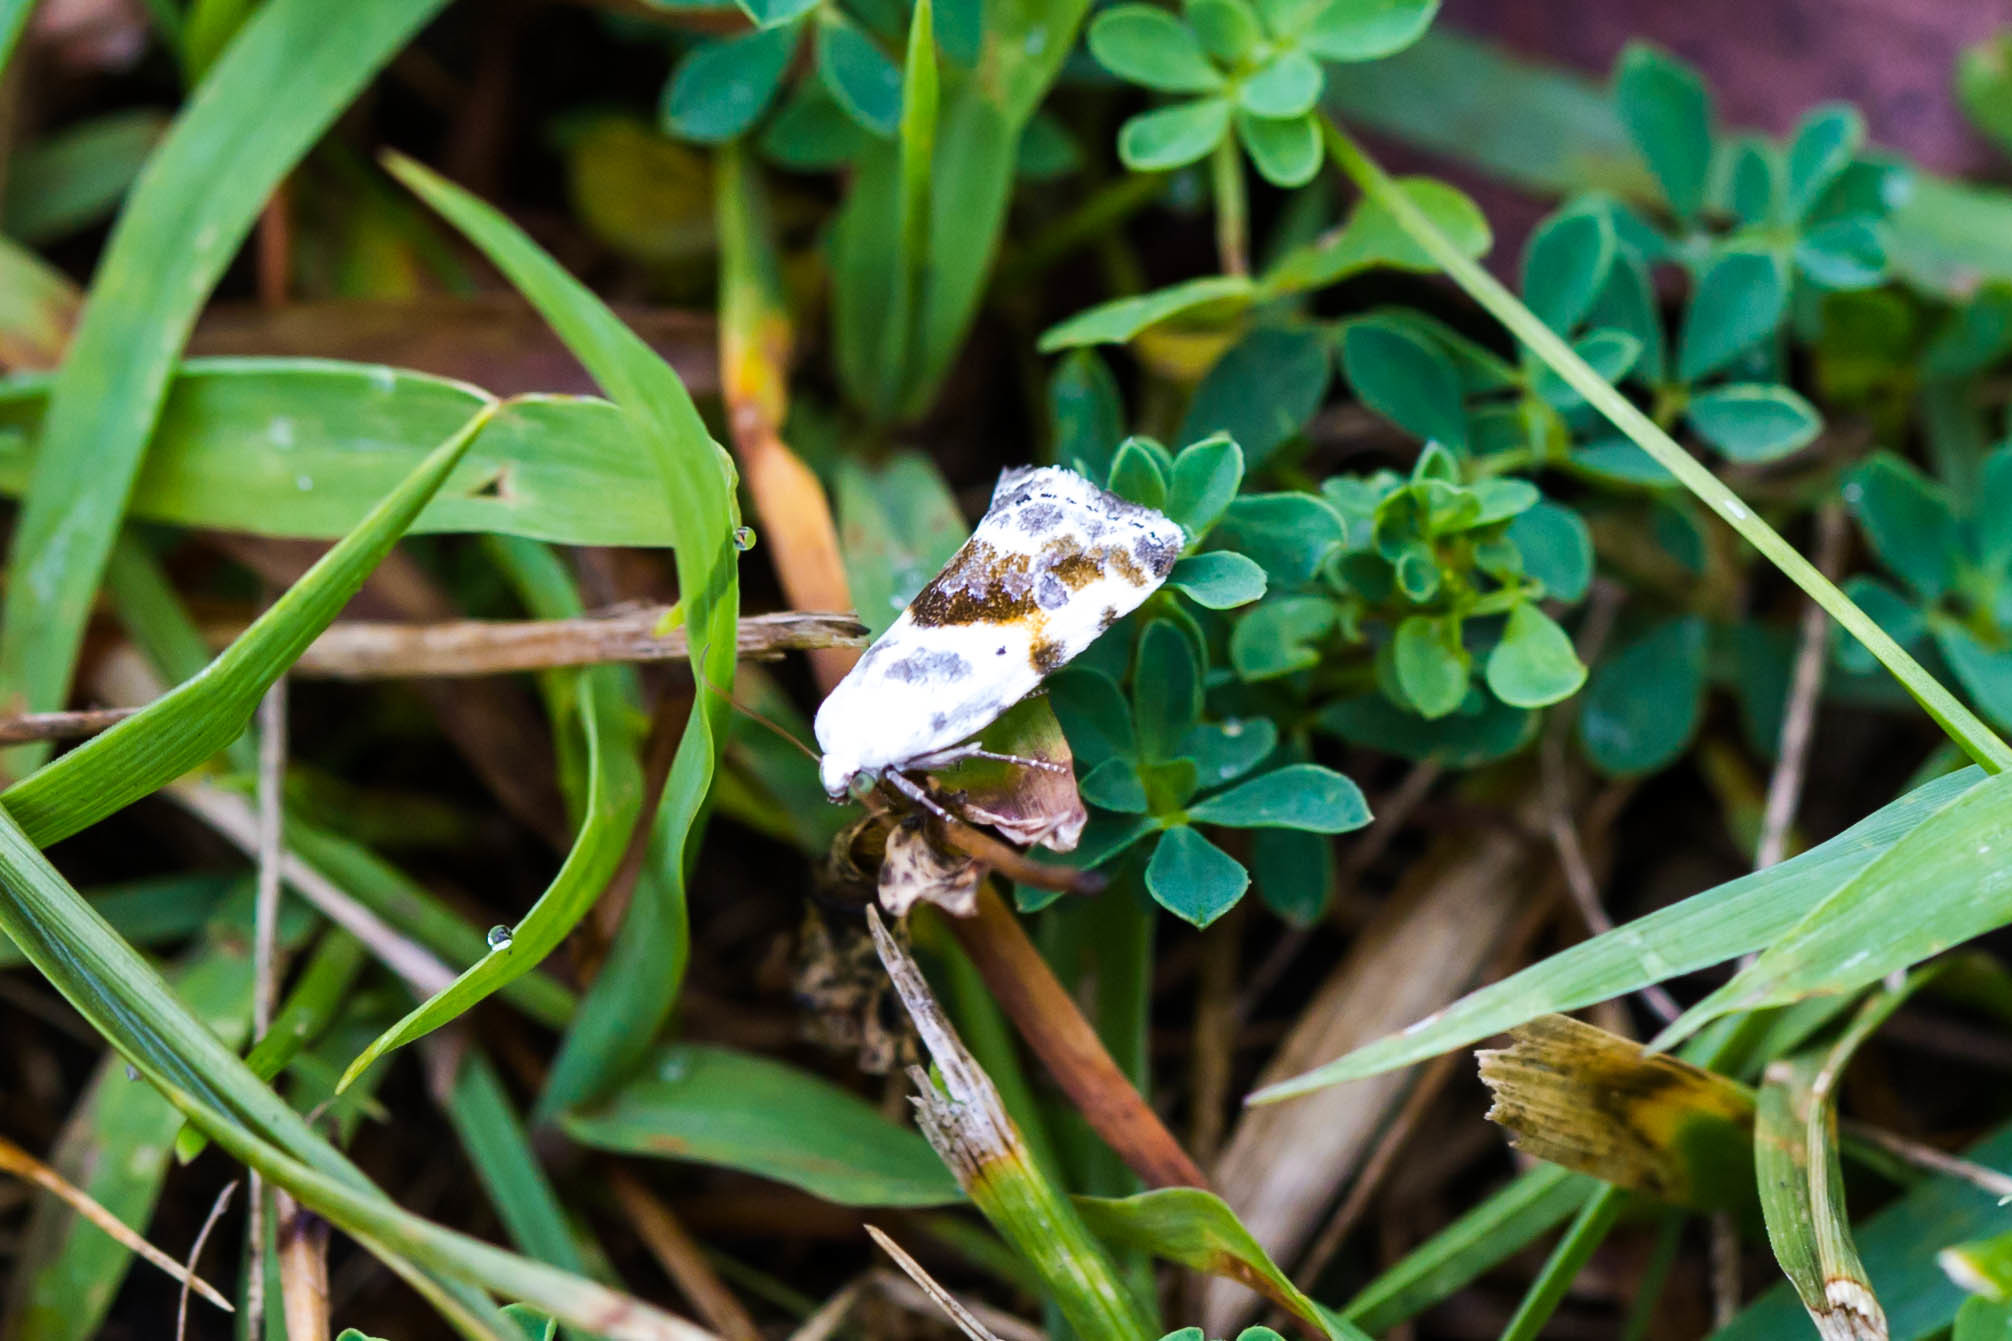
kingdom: Animalia
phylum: Arthropoda
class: Insecta
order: Lepidoptera
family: Noctuidae
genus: Acontia
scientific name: Acontia candefacta
